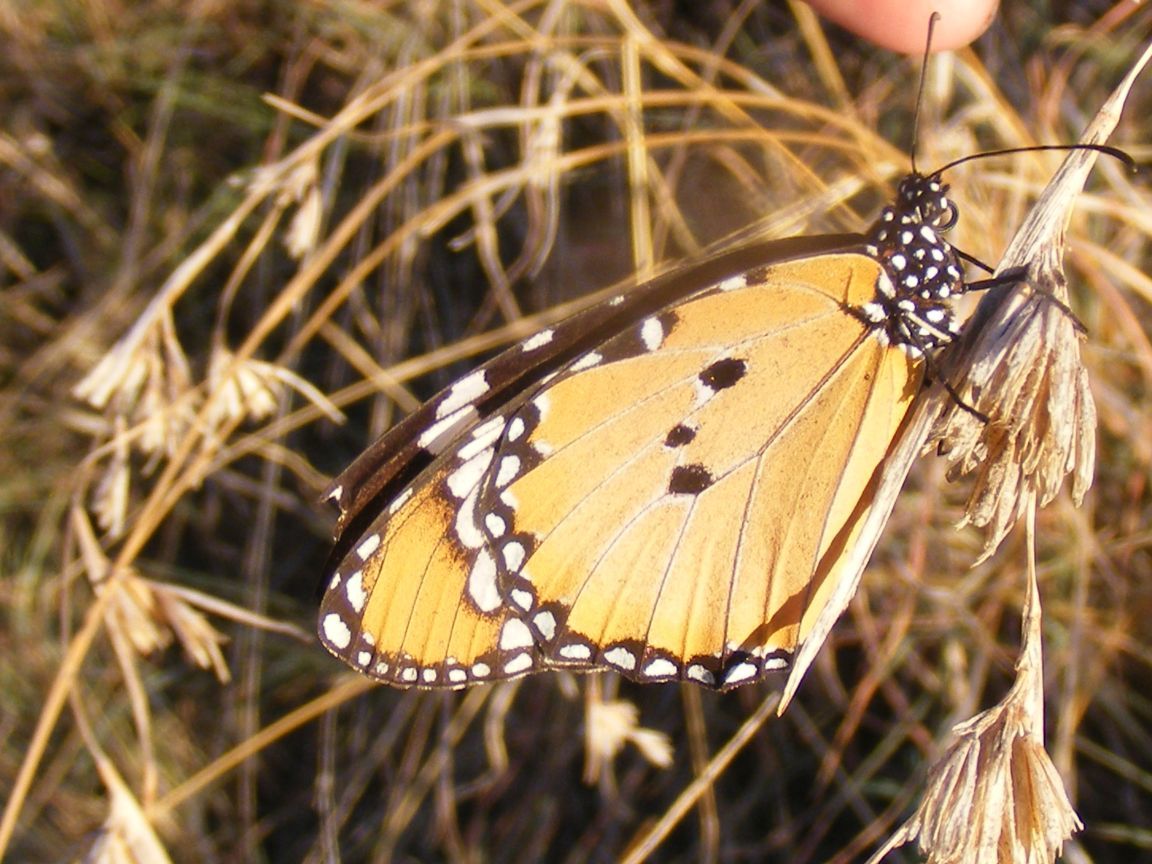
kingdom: Animalia
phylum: Arthropoda
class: Insecta
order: Lepidoptera
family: Nymphalidae
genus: Danaus
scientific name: Danaus chrysippus
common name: Plain tiger
